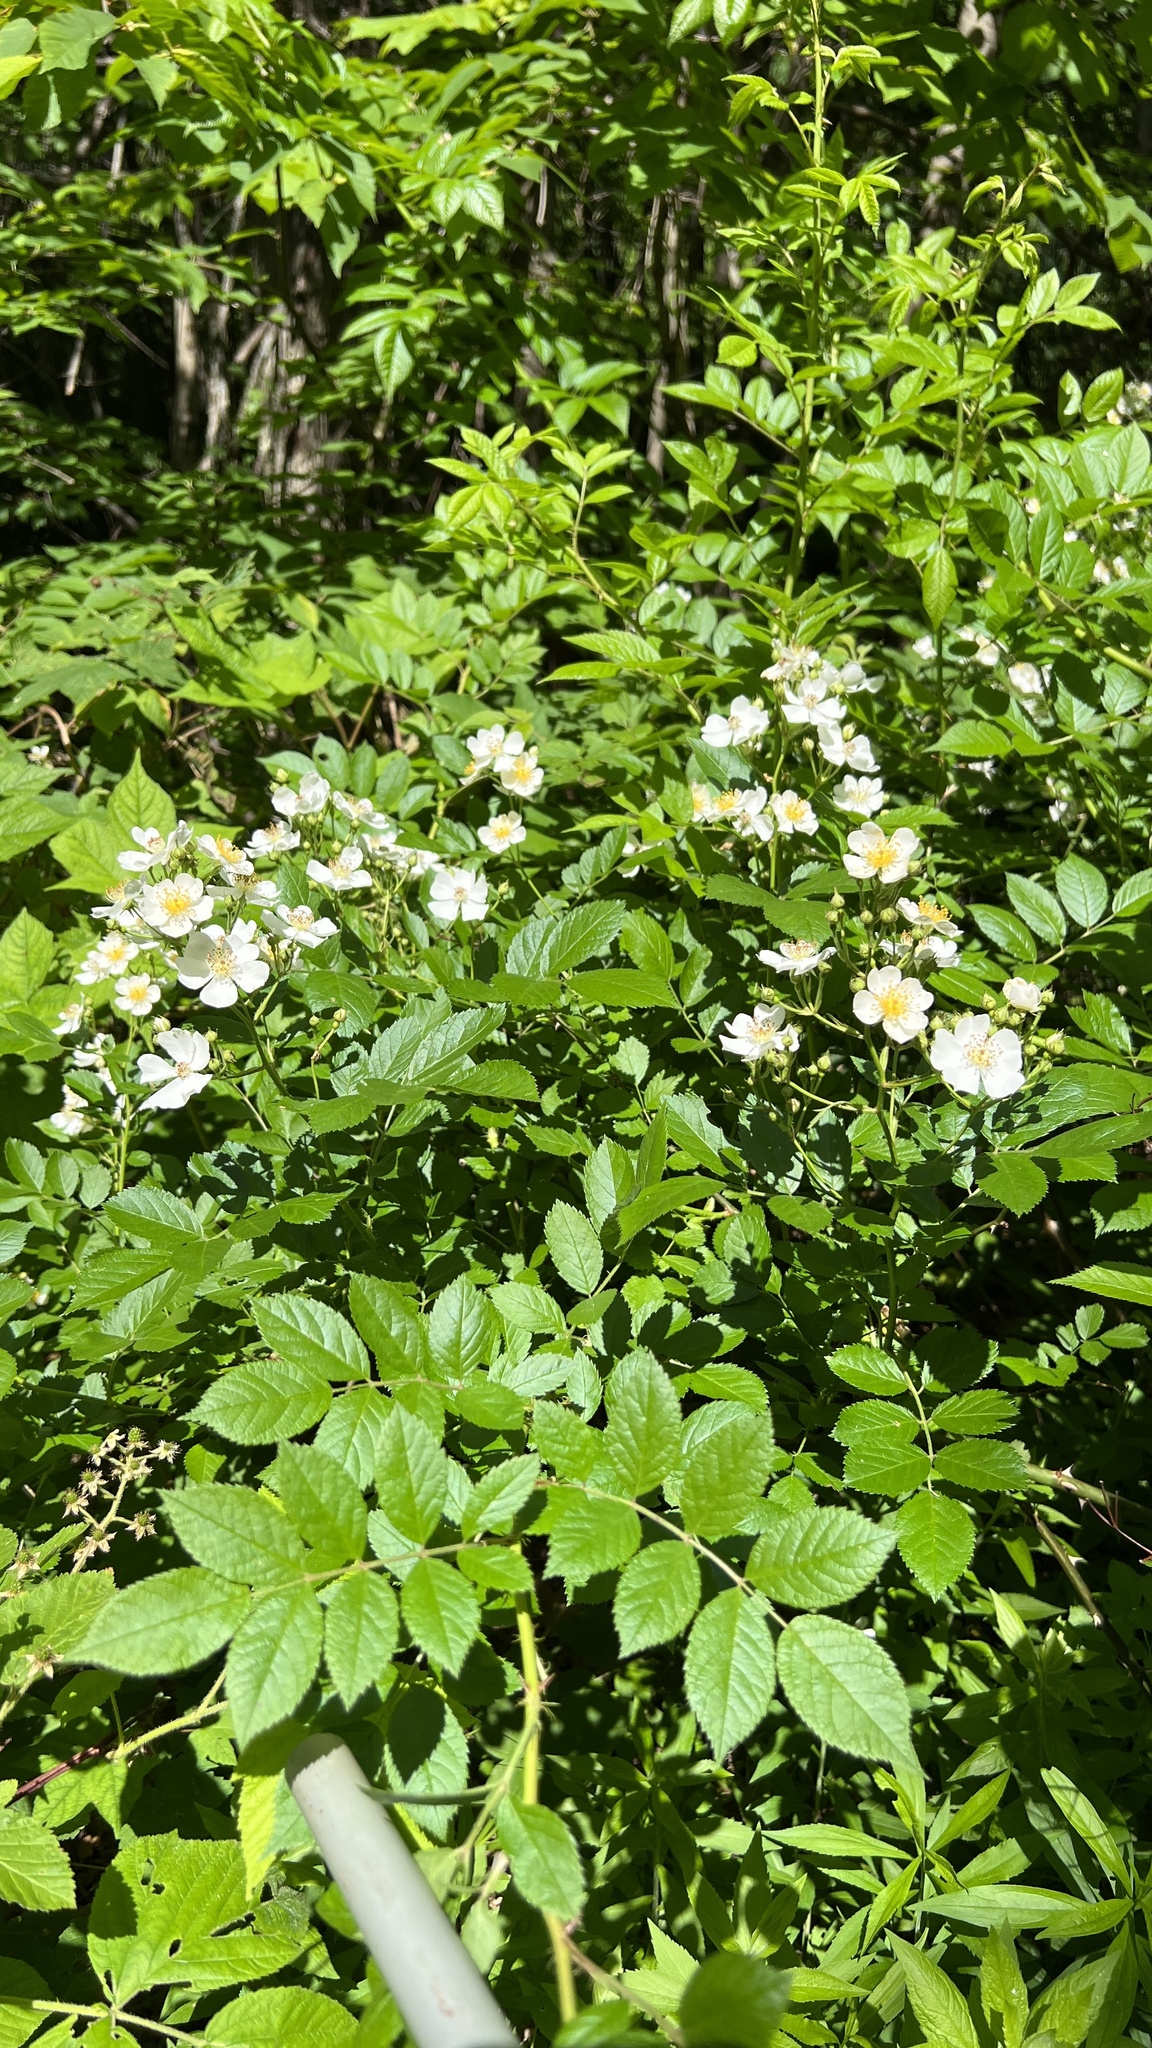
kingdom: Plantae
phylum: Tracheophyta
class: Magnoliopsida
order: Rosales
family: Rosaceae
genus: Rosa
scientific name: Rosa multiflora
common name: Multiflora rose
